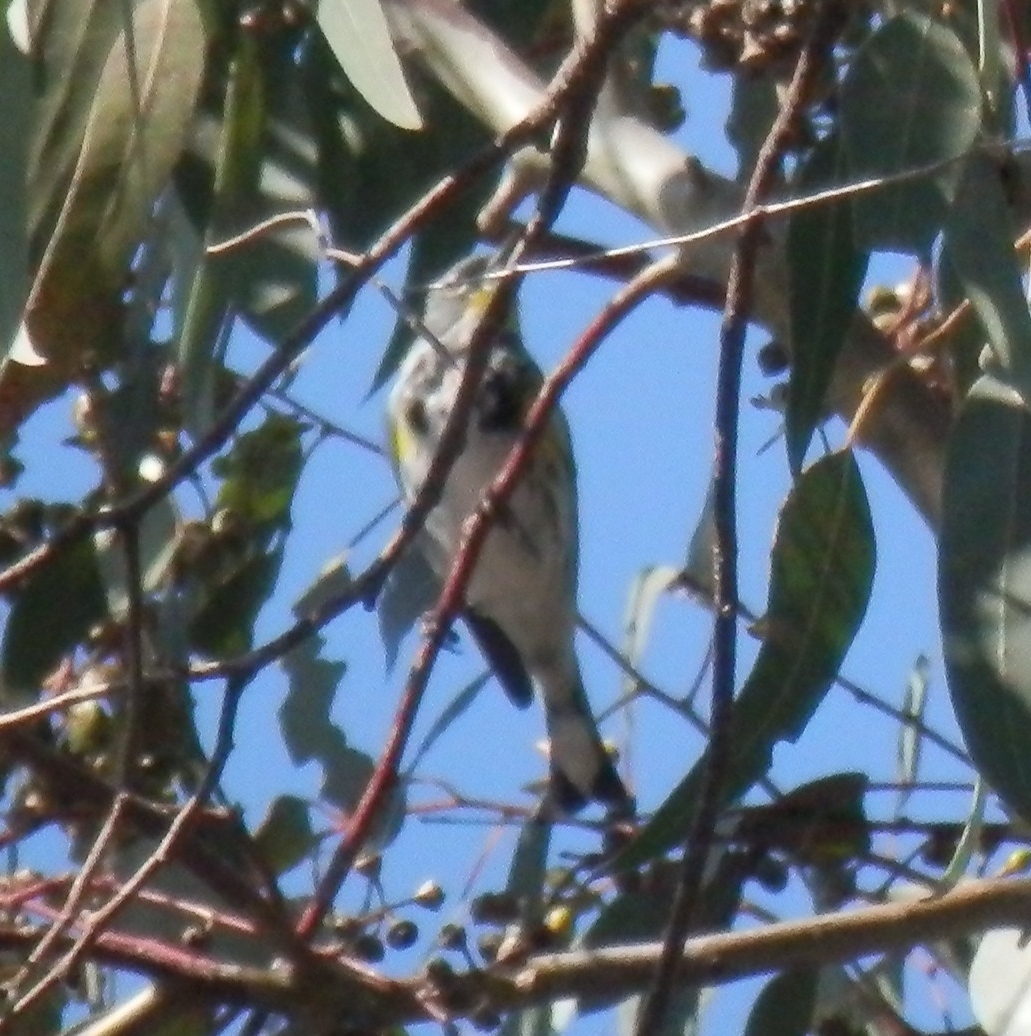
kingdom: Animalia
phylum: Chordata
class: Aves
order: Passeriformes
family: Parulidae
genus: Setophaga
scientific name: Setophaga auduboni
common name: Audubon's warbler
